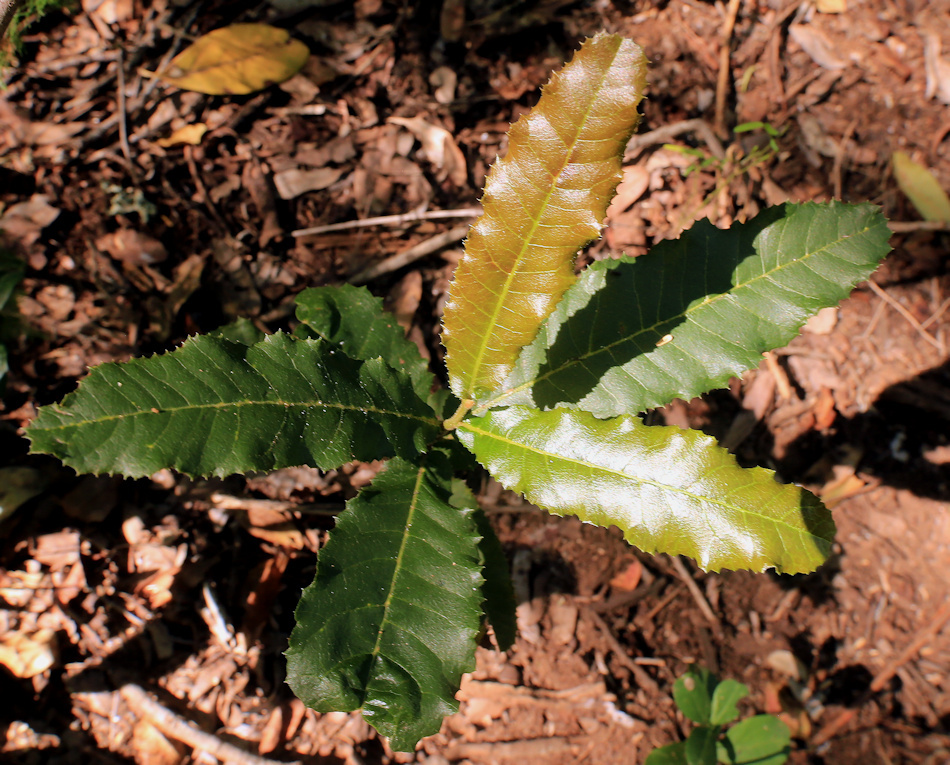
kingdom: Plantae
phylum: Tracheophyta
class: Magnoliopsida
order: Sapindales
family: Sapindaceae
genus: Pappea
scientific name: Pappea capensis
